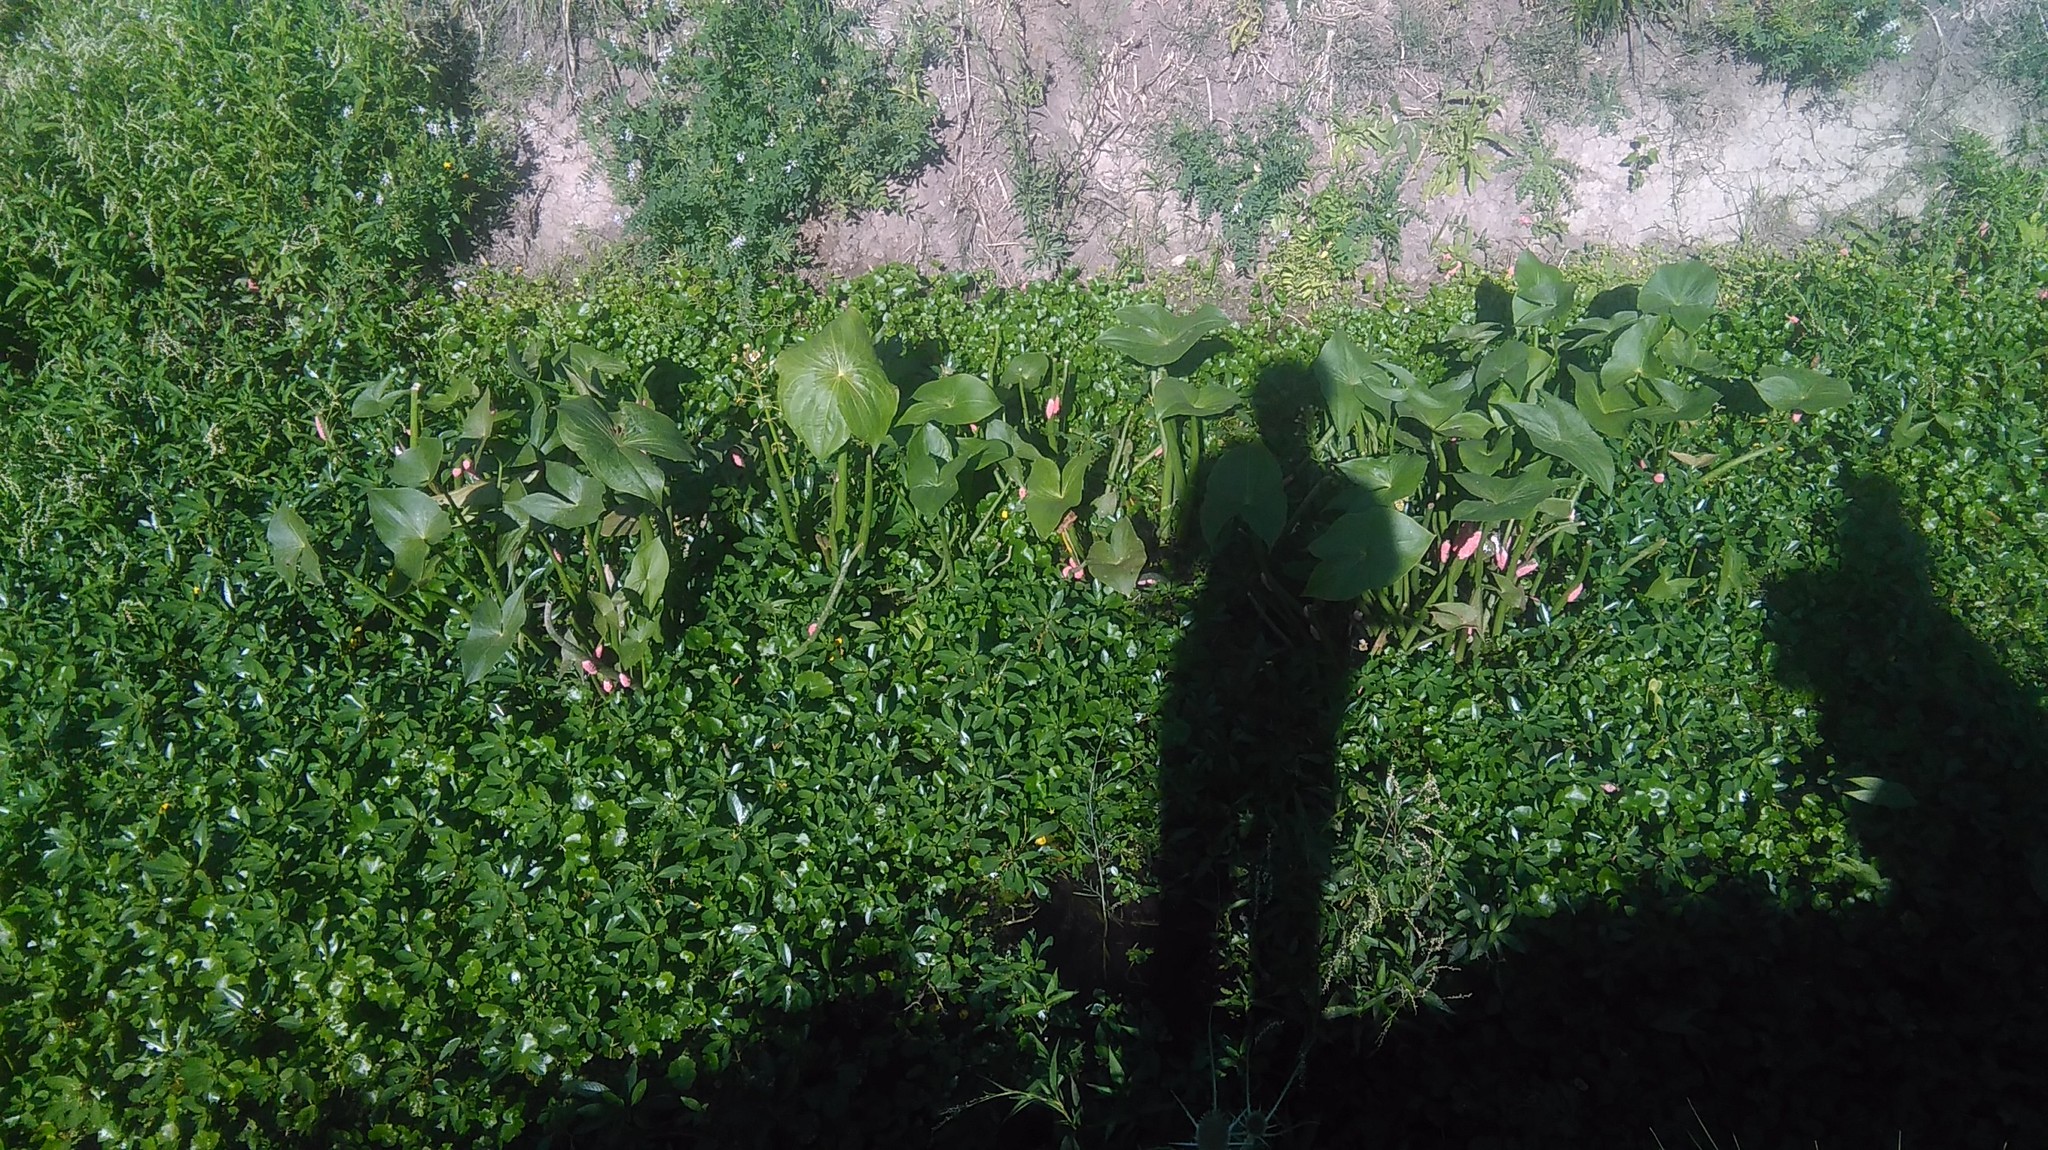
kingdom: Plantae
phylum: Tracheophyta
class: Liliopsida
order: Alismatales
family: Alismataceae
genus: Sagittaria
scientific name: Sagittaria montevidensis
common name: Giant arrowhead
